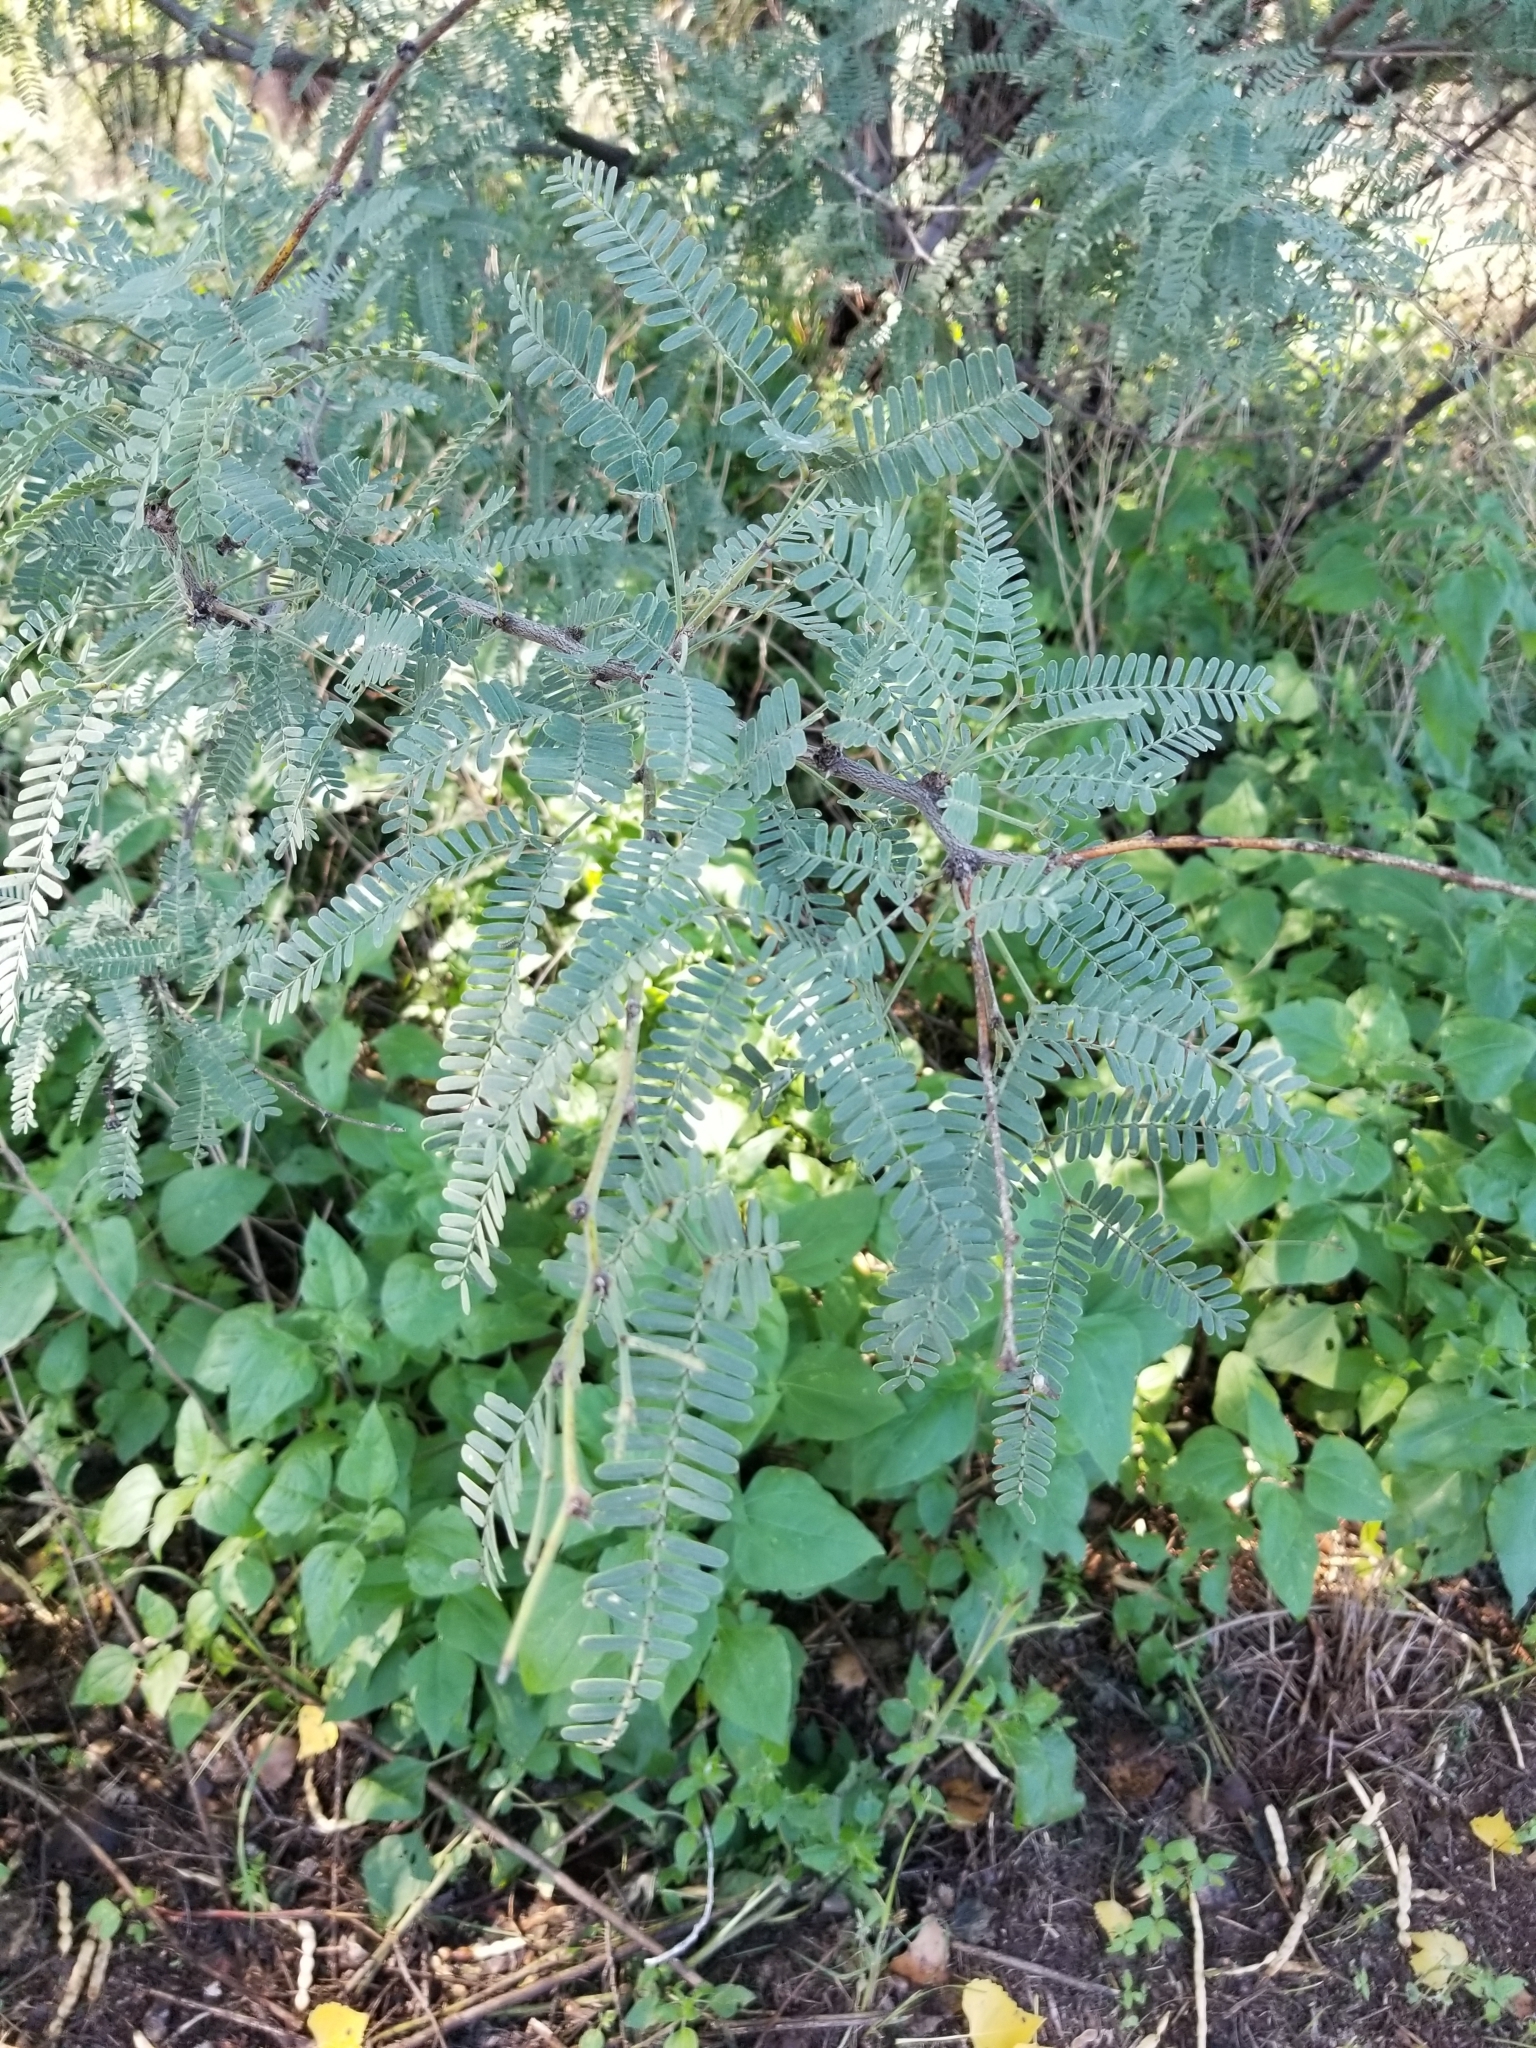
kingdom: Plantae
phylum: Tracheophyta
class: Magnoliopsida
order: Fabales
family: Fabaceae
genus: Prosopis
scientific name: Prosopis velutina
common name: Velvet mesquite
